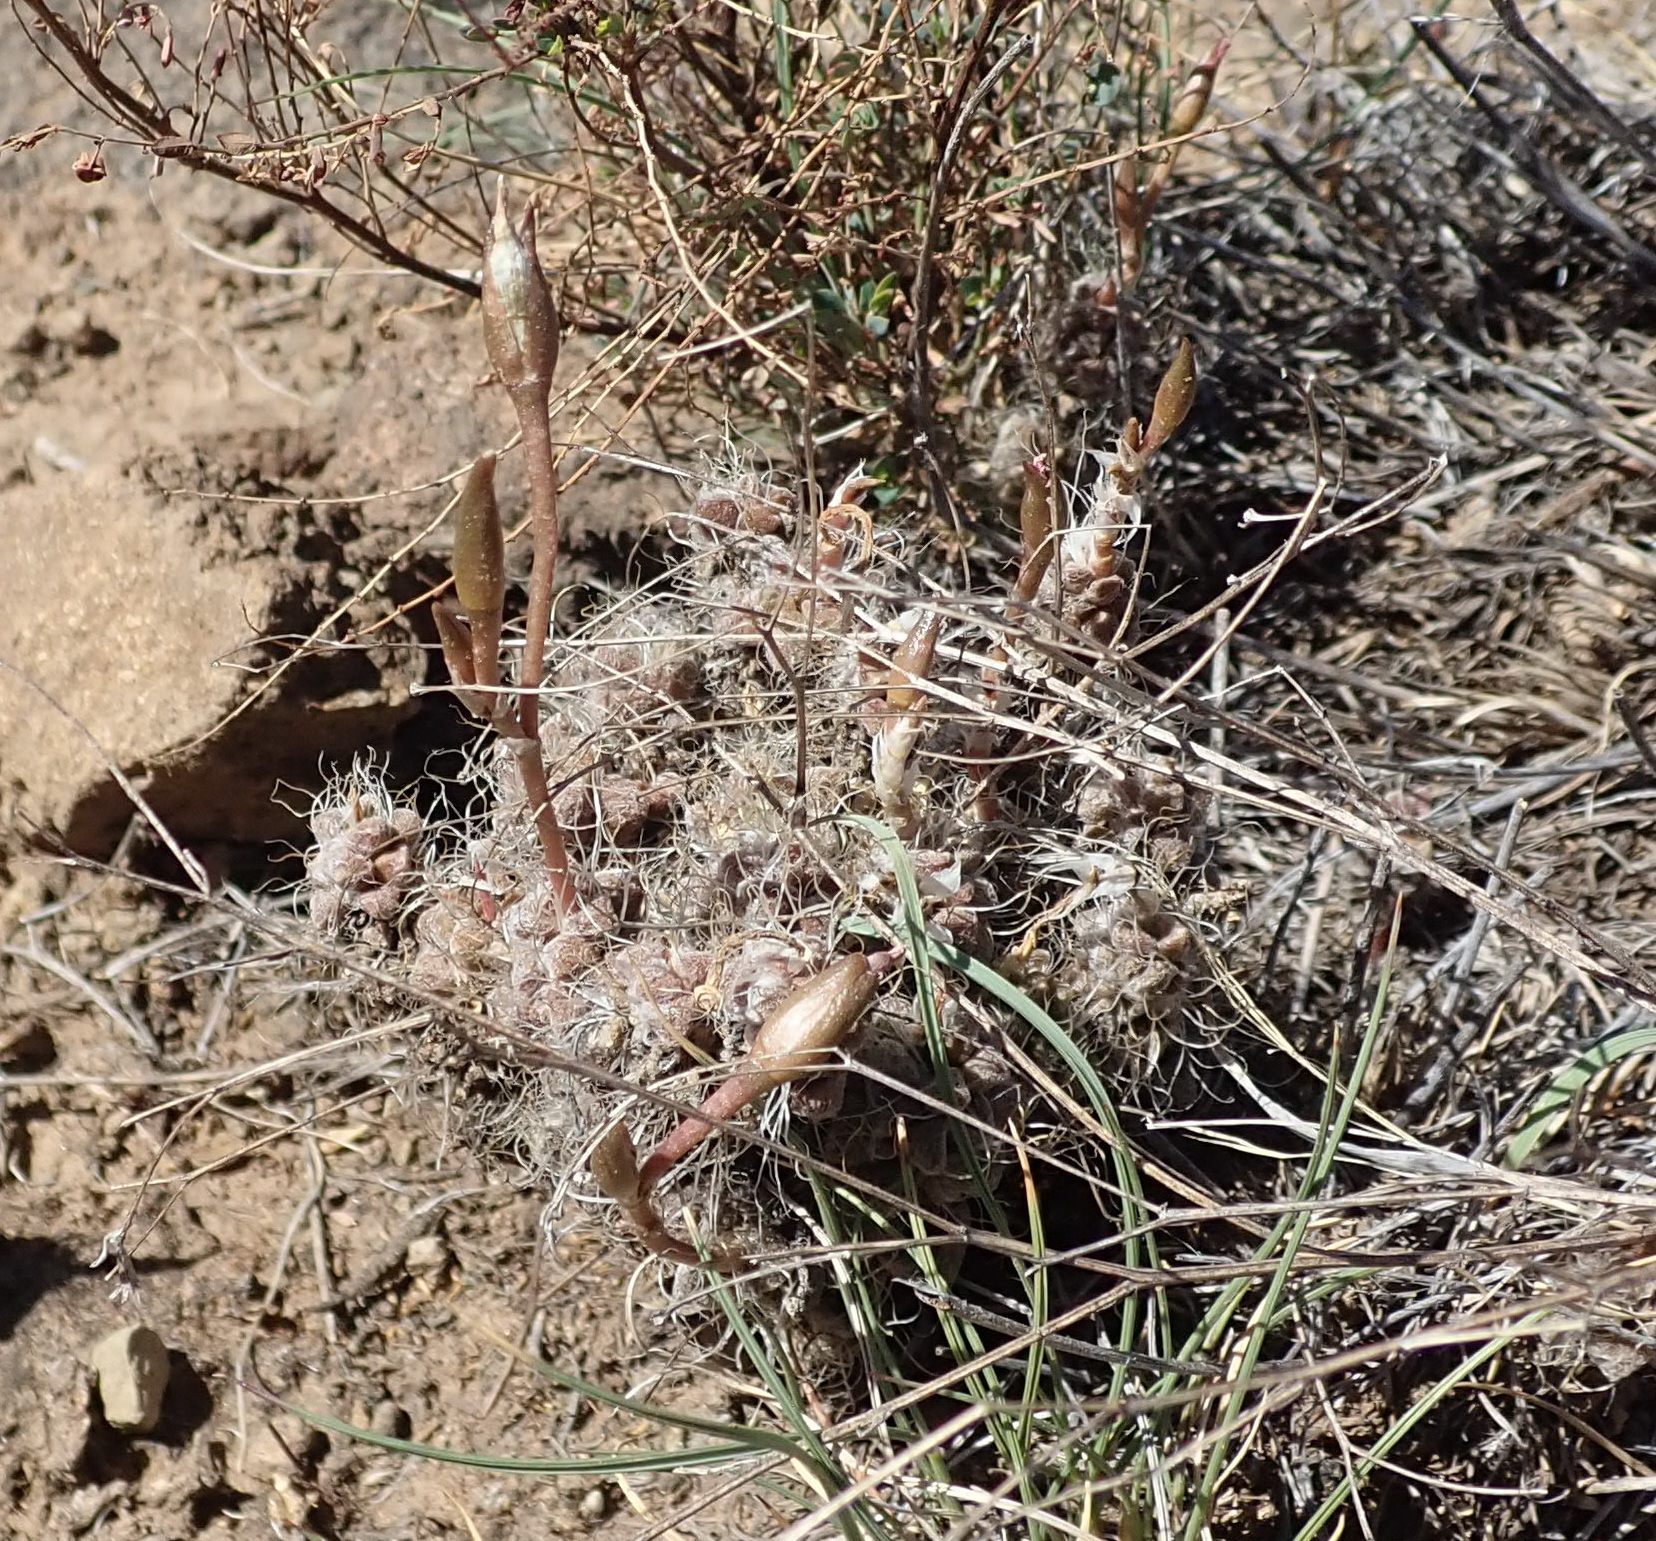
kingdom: Plantae
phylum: Tracheophyta
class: Magnoliopsida
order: Caryophyllales
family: Anacampserotaceae
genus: Anacampseros
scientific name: Anacampseros filamentosa
